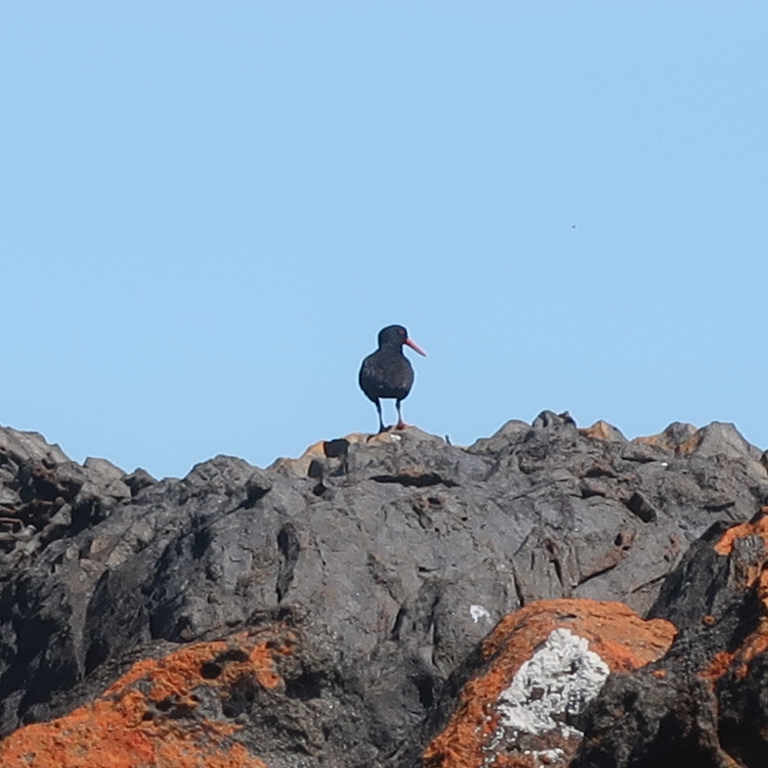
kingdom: Animalia
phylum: Chordata
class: Aves
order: Charadriiformes
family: Haematopodidae
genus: Haematopus
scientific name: Haematopus fuliginosus
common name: Sooty oystercatcher
